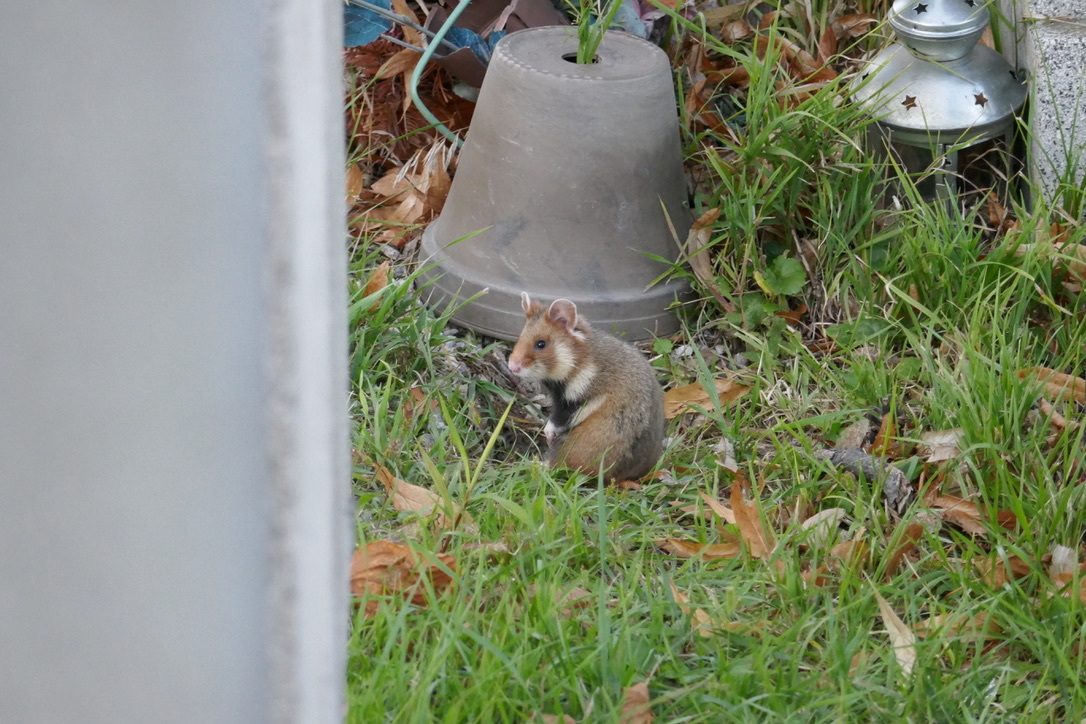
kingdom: Animalia
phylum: Chordata
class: Mammalia
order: Rodentia
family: Cricetidae
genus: Cricetus
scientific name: Cricetus cricetus
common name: Common hamster
